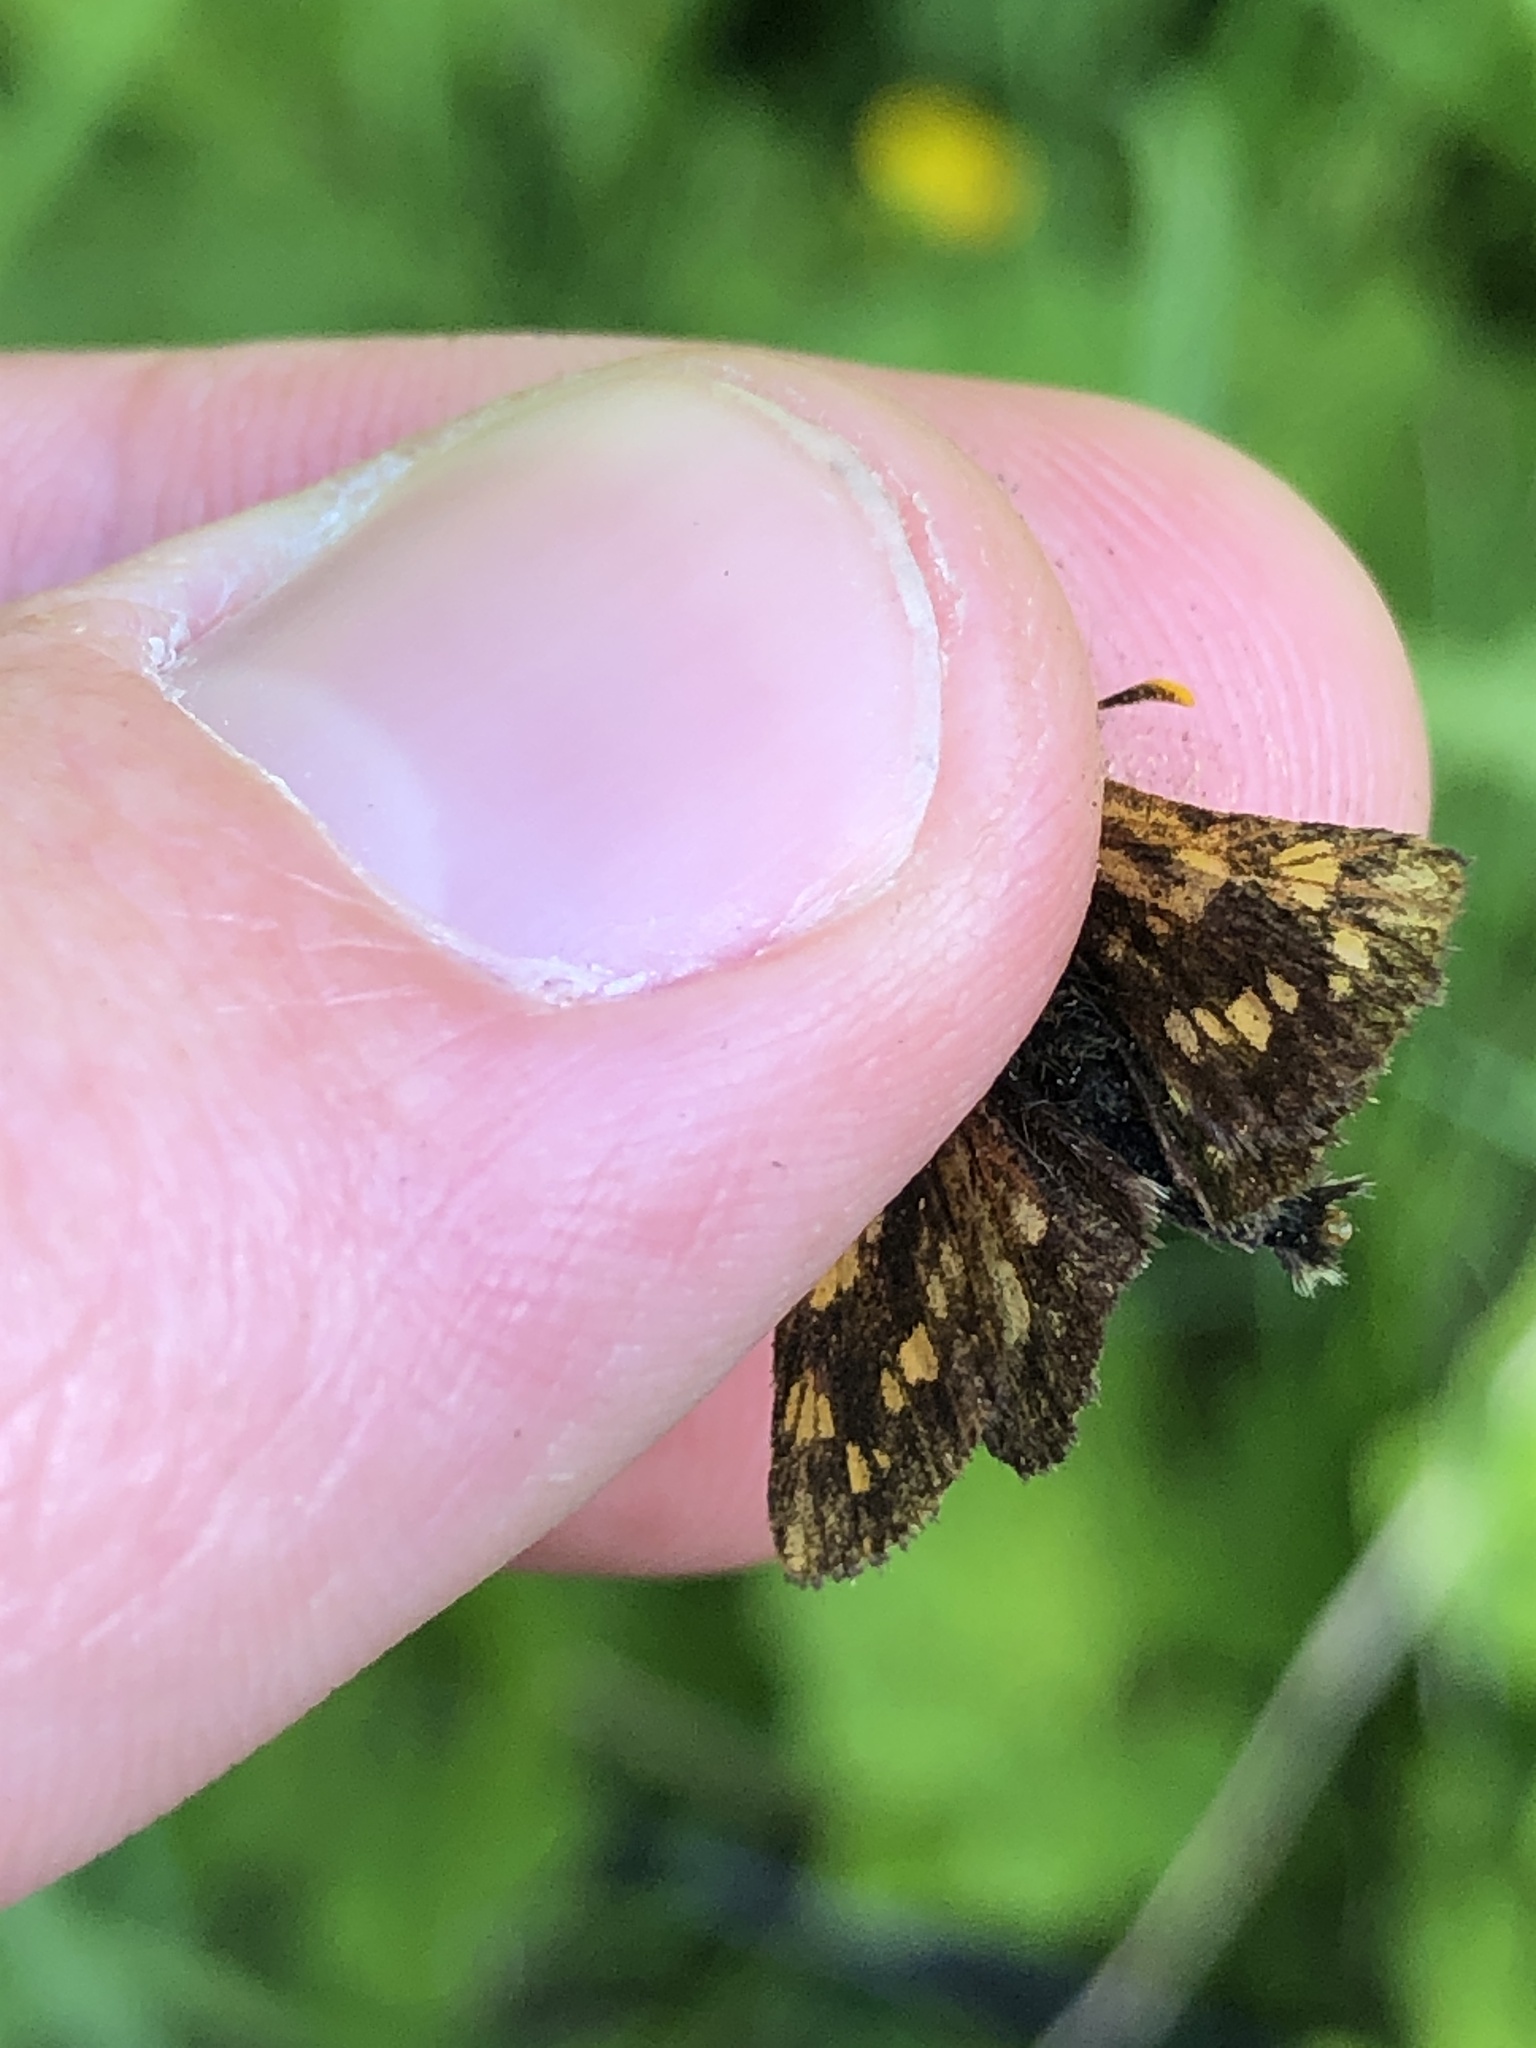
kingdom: Animalia
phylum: Arthropoda
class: Insecta
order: Lepidoptera
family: Hesperiidae
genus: Carterocephalus
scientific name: Carterocephalus palaemon
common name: Chequered skipper
